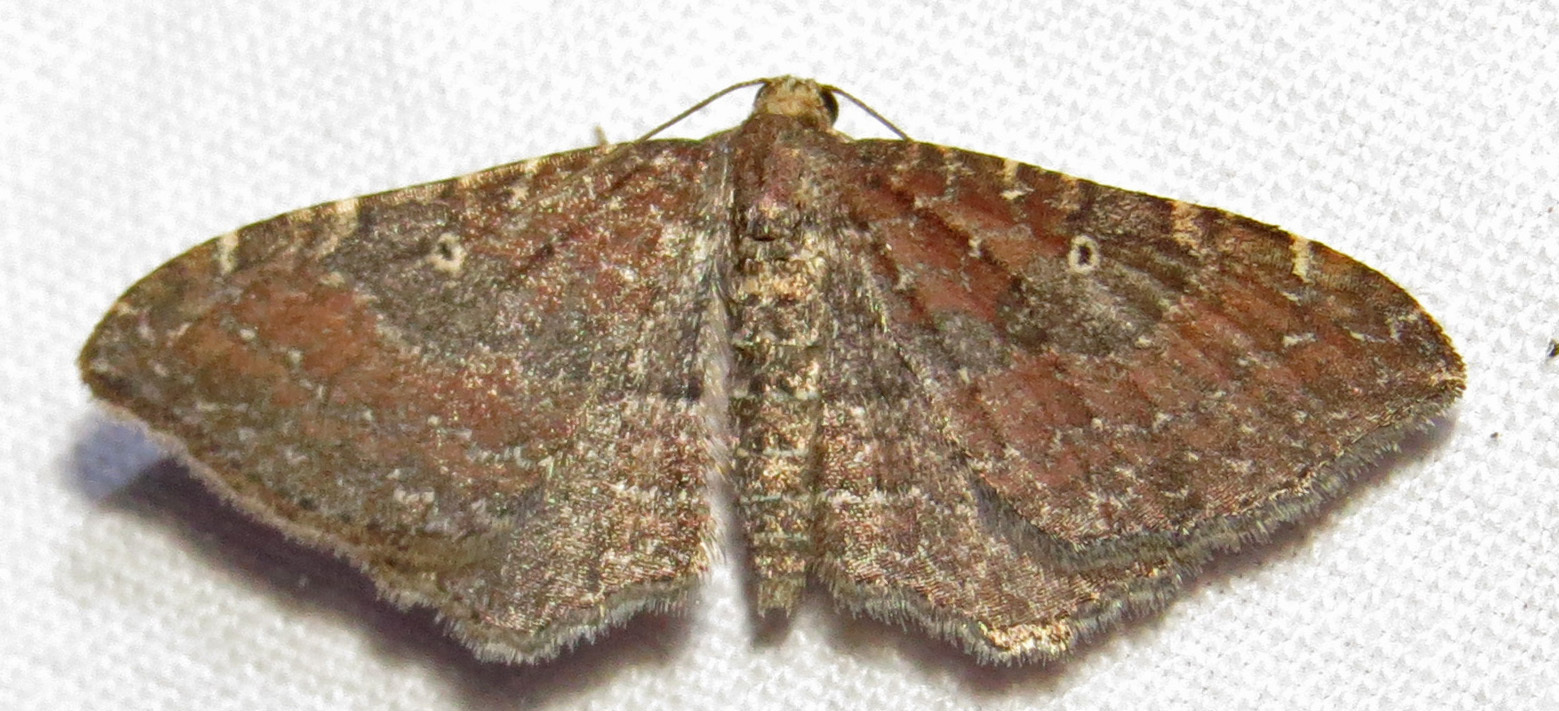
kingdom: Animalia
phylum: Arthropoda
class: Insecta
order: Lepidoptera
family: Geometridae
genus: Orthonama
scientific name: Orthonama obstipata
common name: The gem
